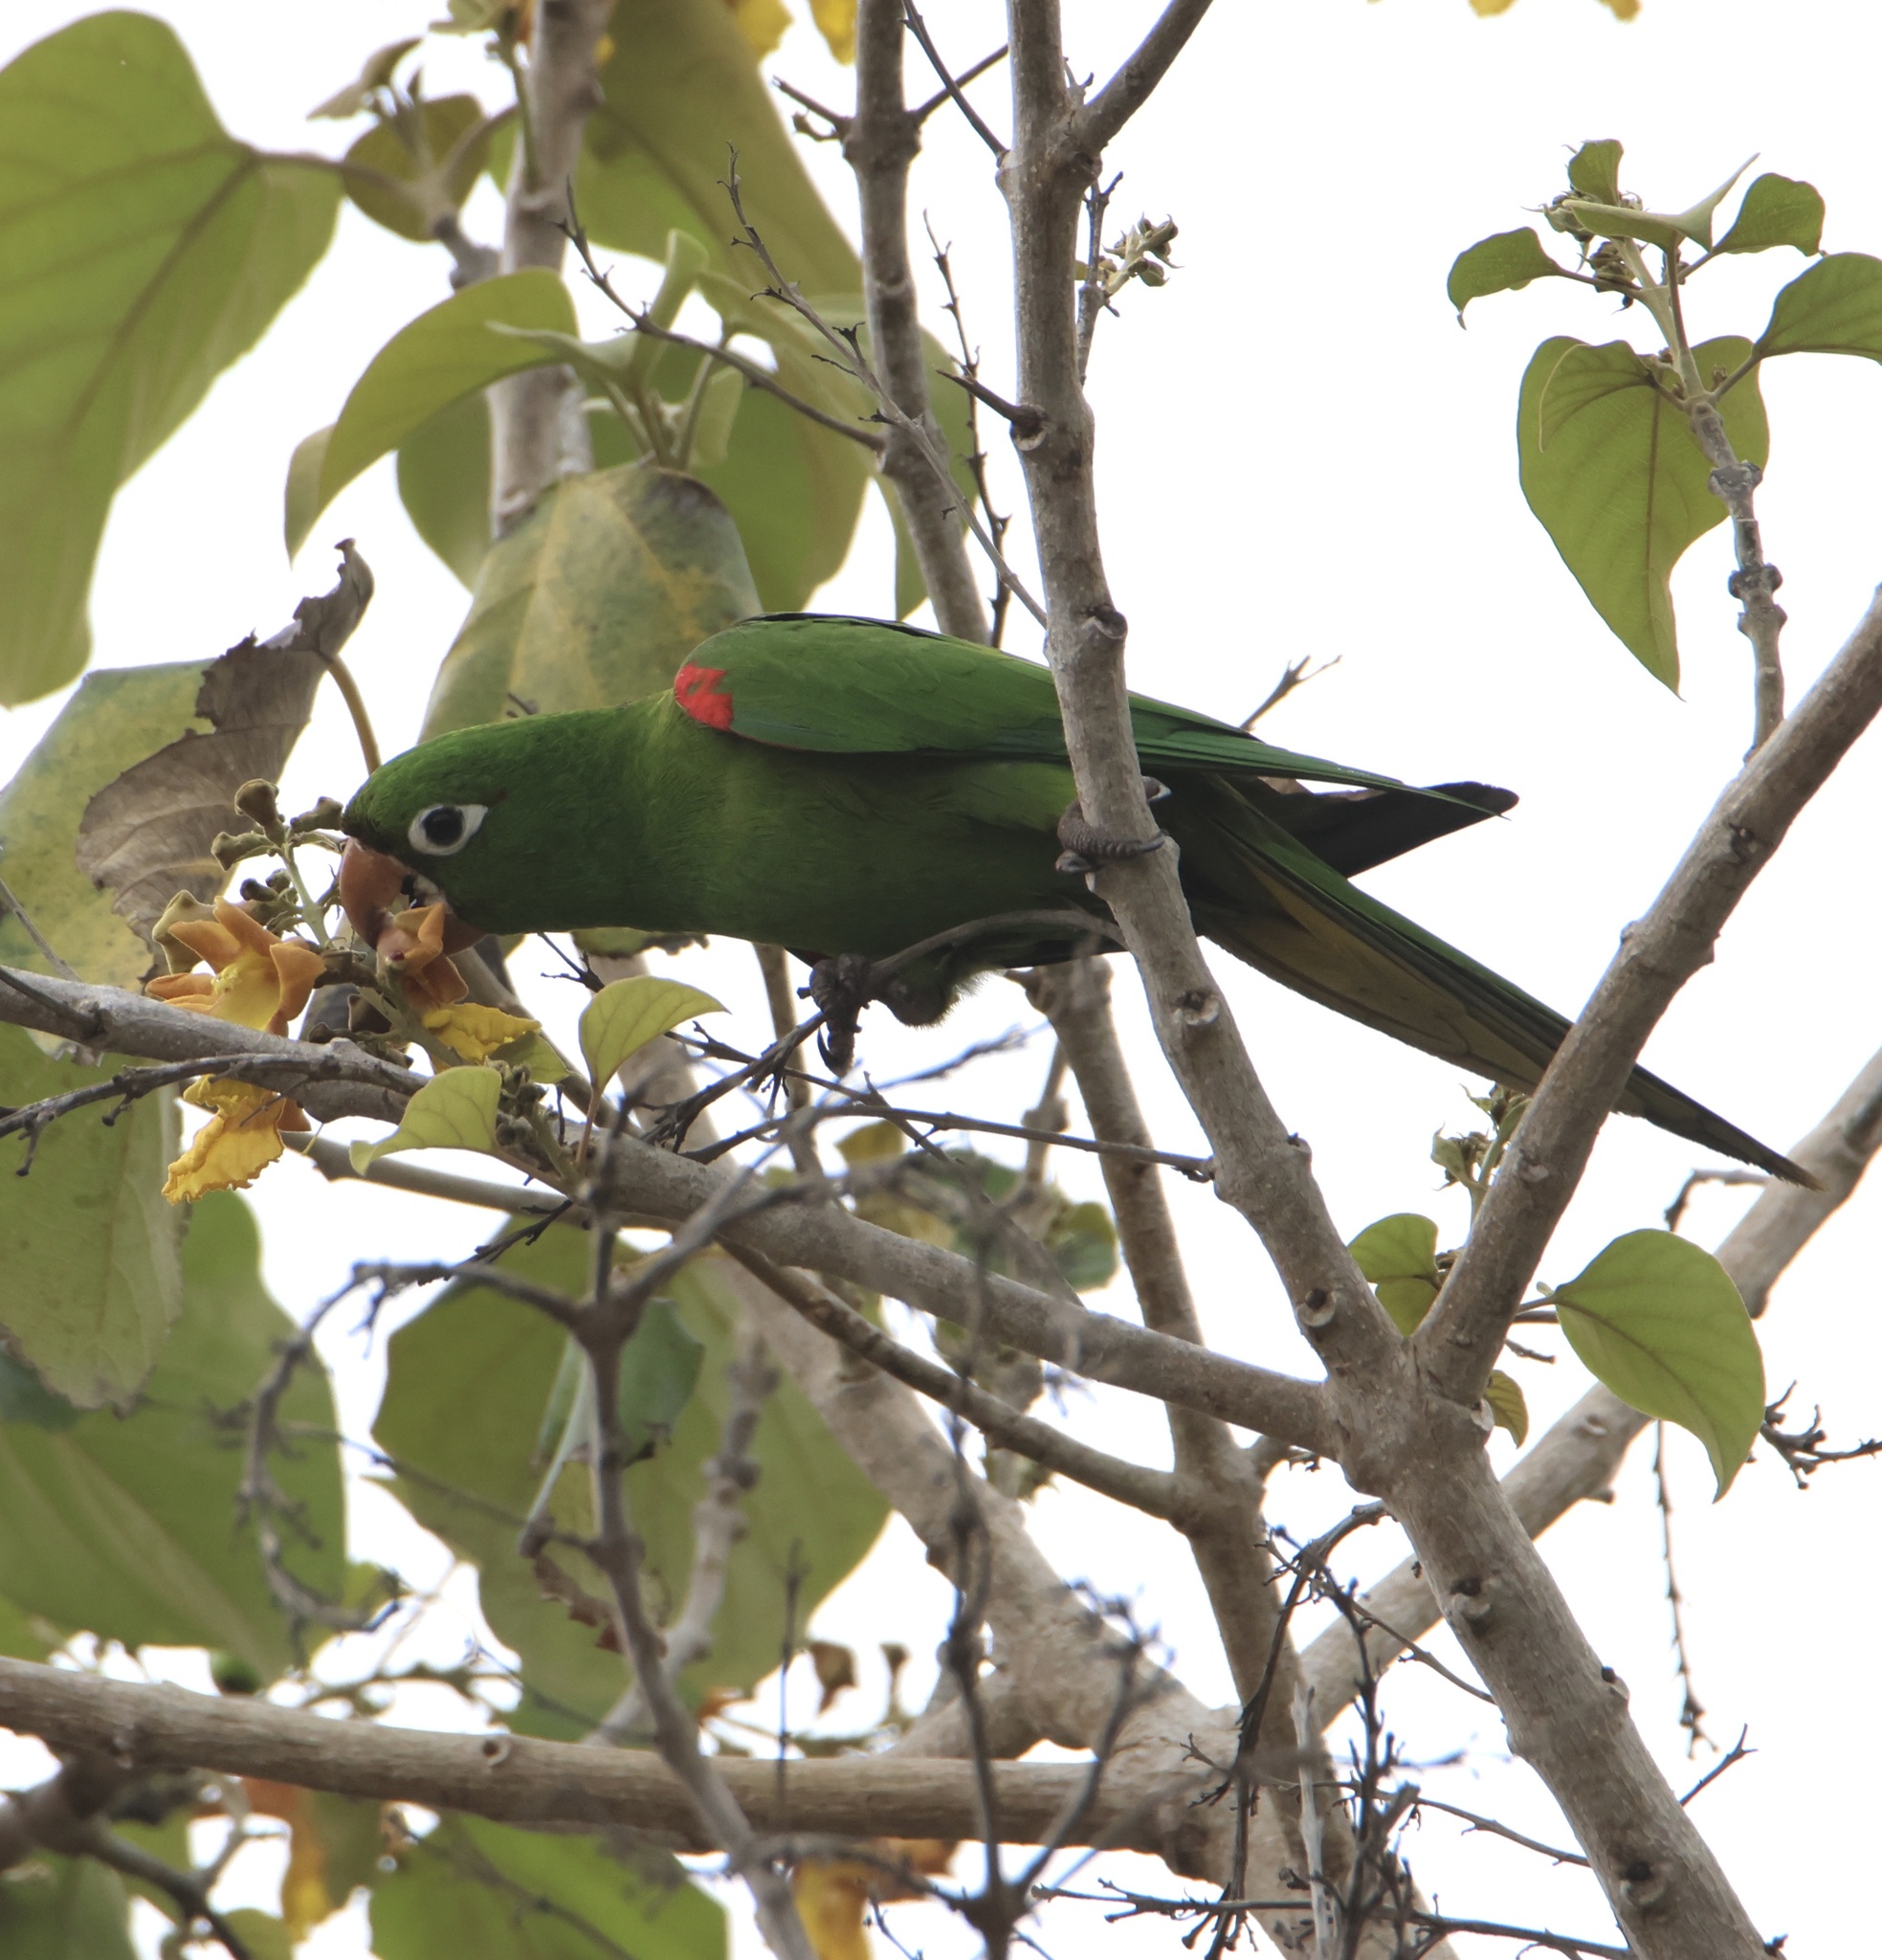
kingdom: Animalia
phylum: Chordata
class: Aves
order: Psittaciformes
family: Psittacidae
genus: Aratinga
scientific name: Aratinga chloroptera
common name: Hispaniolan parakeet
